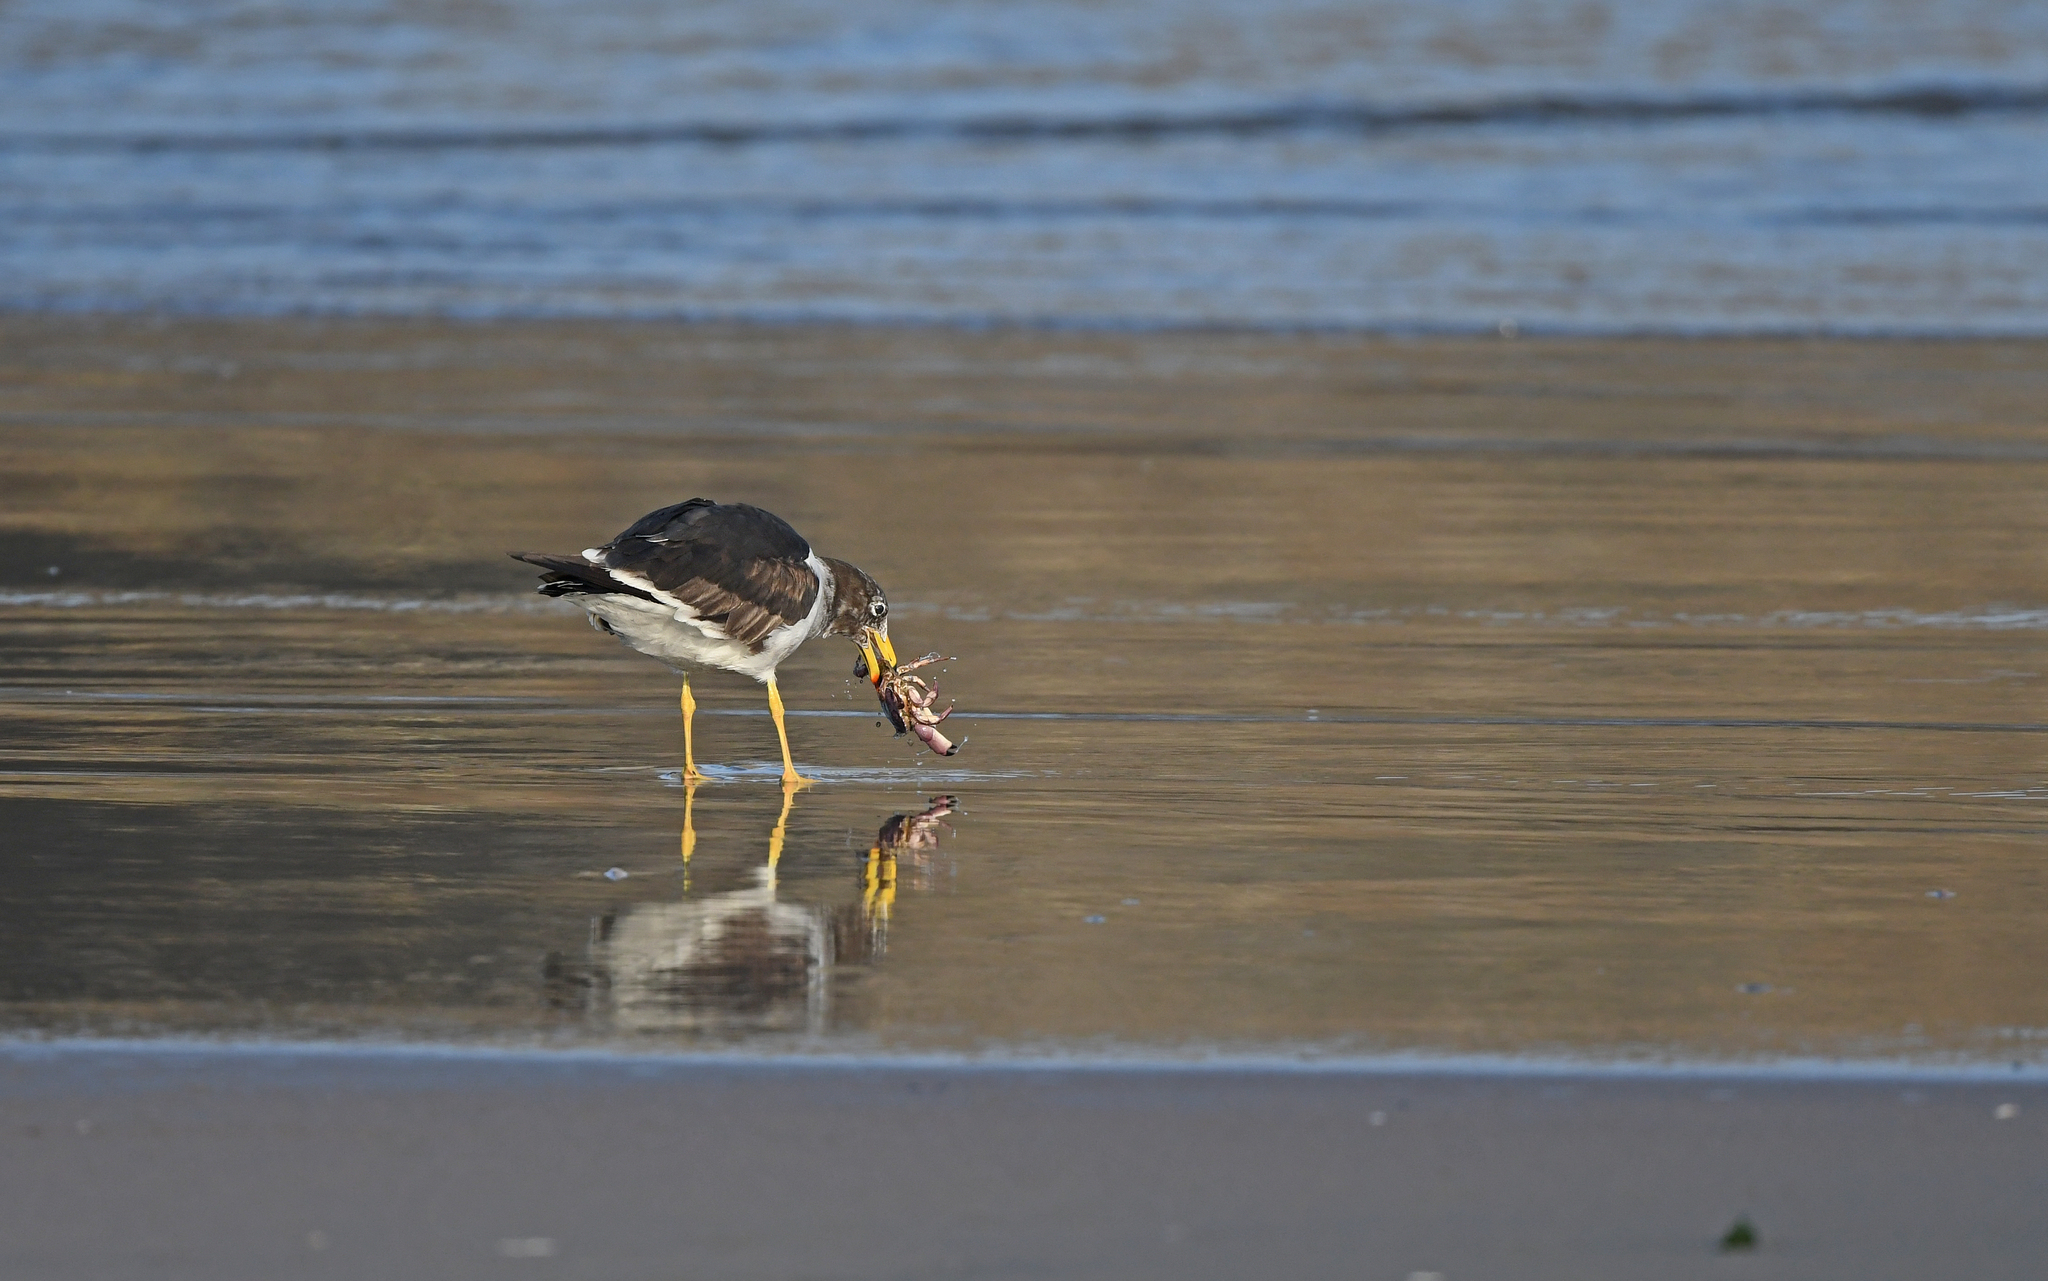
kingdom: Animalia
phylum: Chordata
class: Aves
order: Charadriiformes
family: Laridae
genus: Larus
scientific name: Larus belcheri
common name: Belcher's gull
